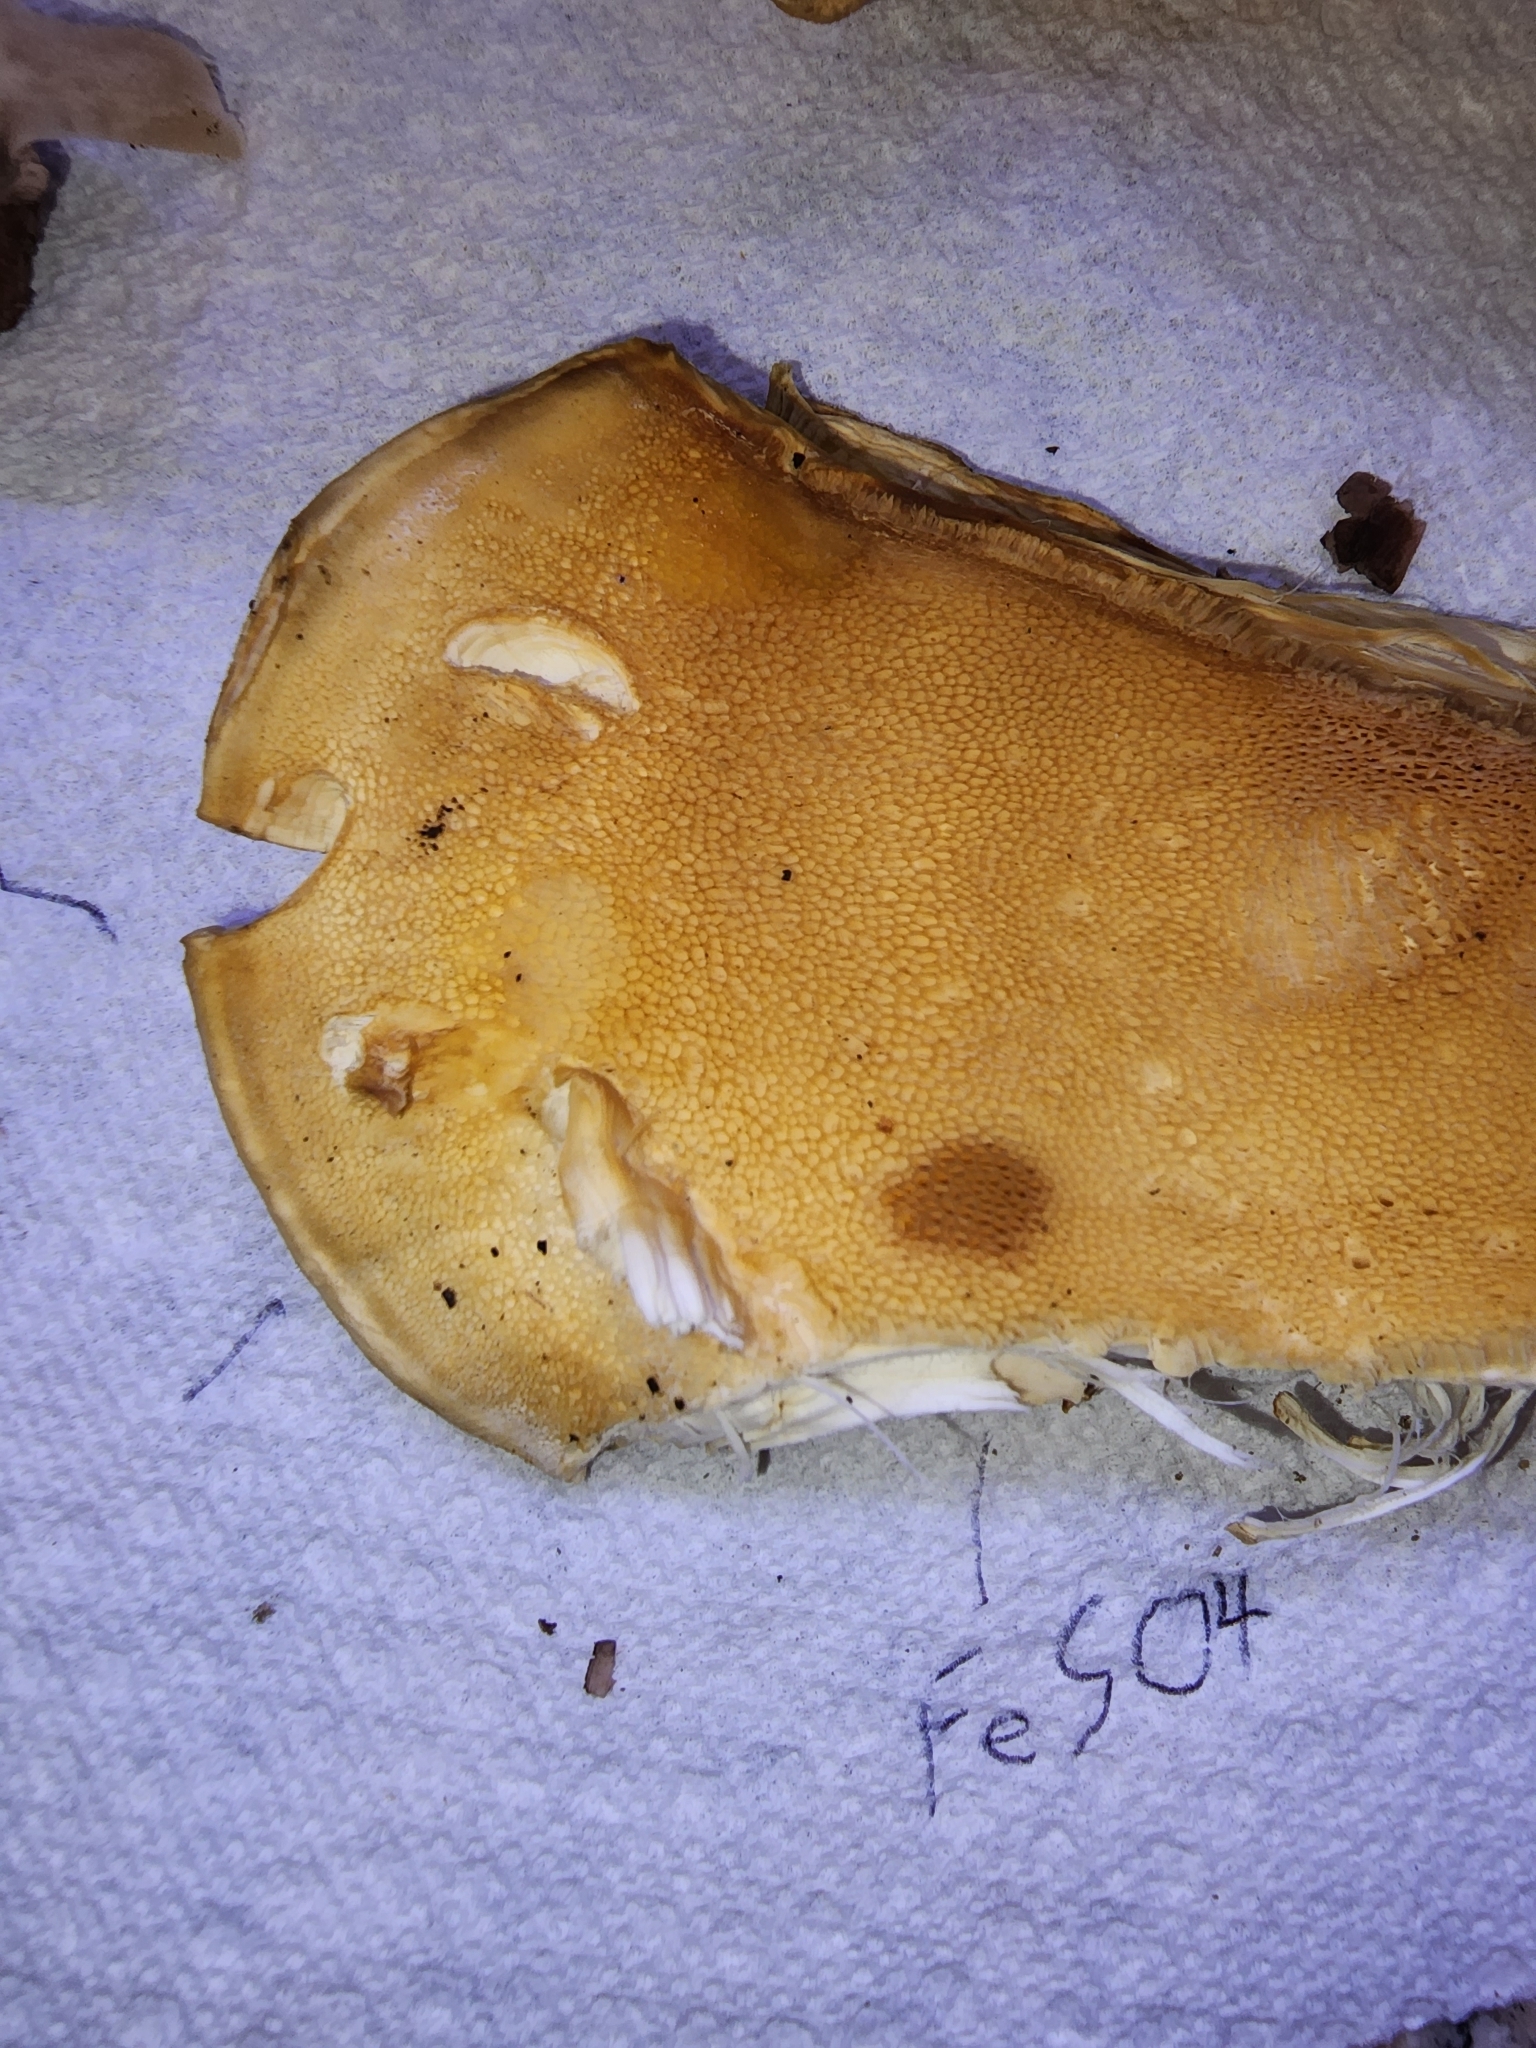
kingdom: Fungi
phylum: Basidiomycota
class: Agaricomycetes
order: Russulales
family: Bondarzewiaceae
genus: Bondarzewia
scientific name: Bondarzewia berkeleyi
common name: Berkeley's polypore
